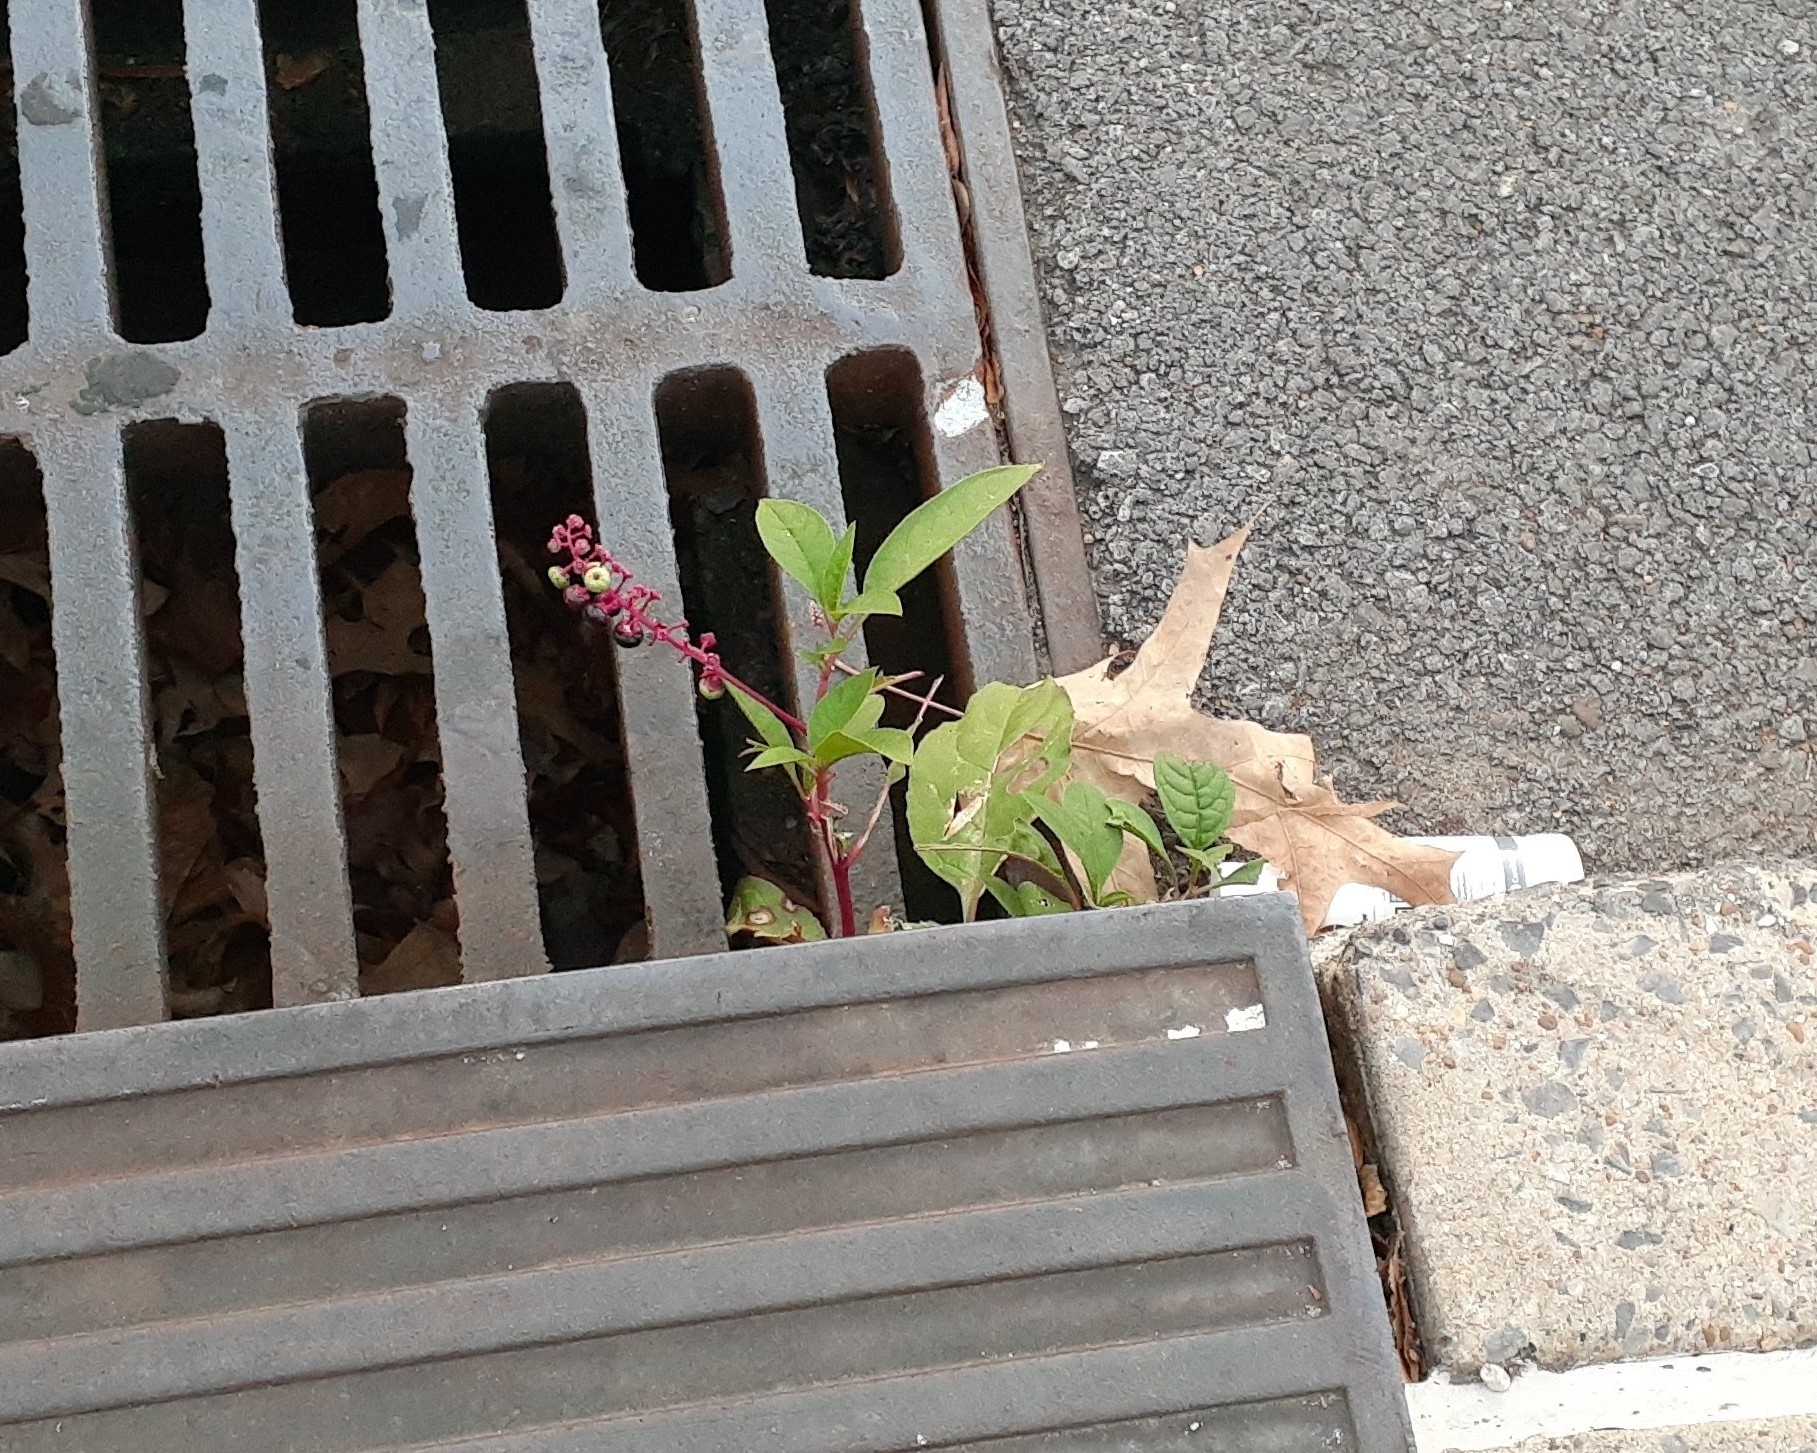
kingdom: Plantae
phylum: Tracheophyta
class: Magnoliopsida
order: Caryophyllales
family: Phytolaccaceae
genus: Phytolacca
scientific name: Phytolacca americana
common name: American pokeweed
